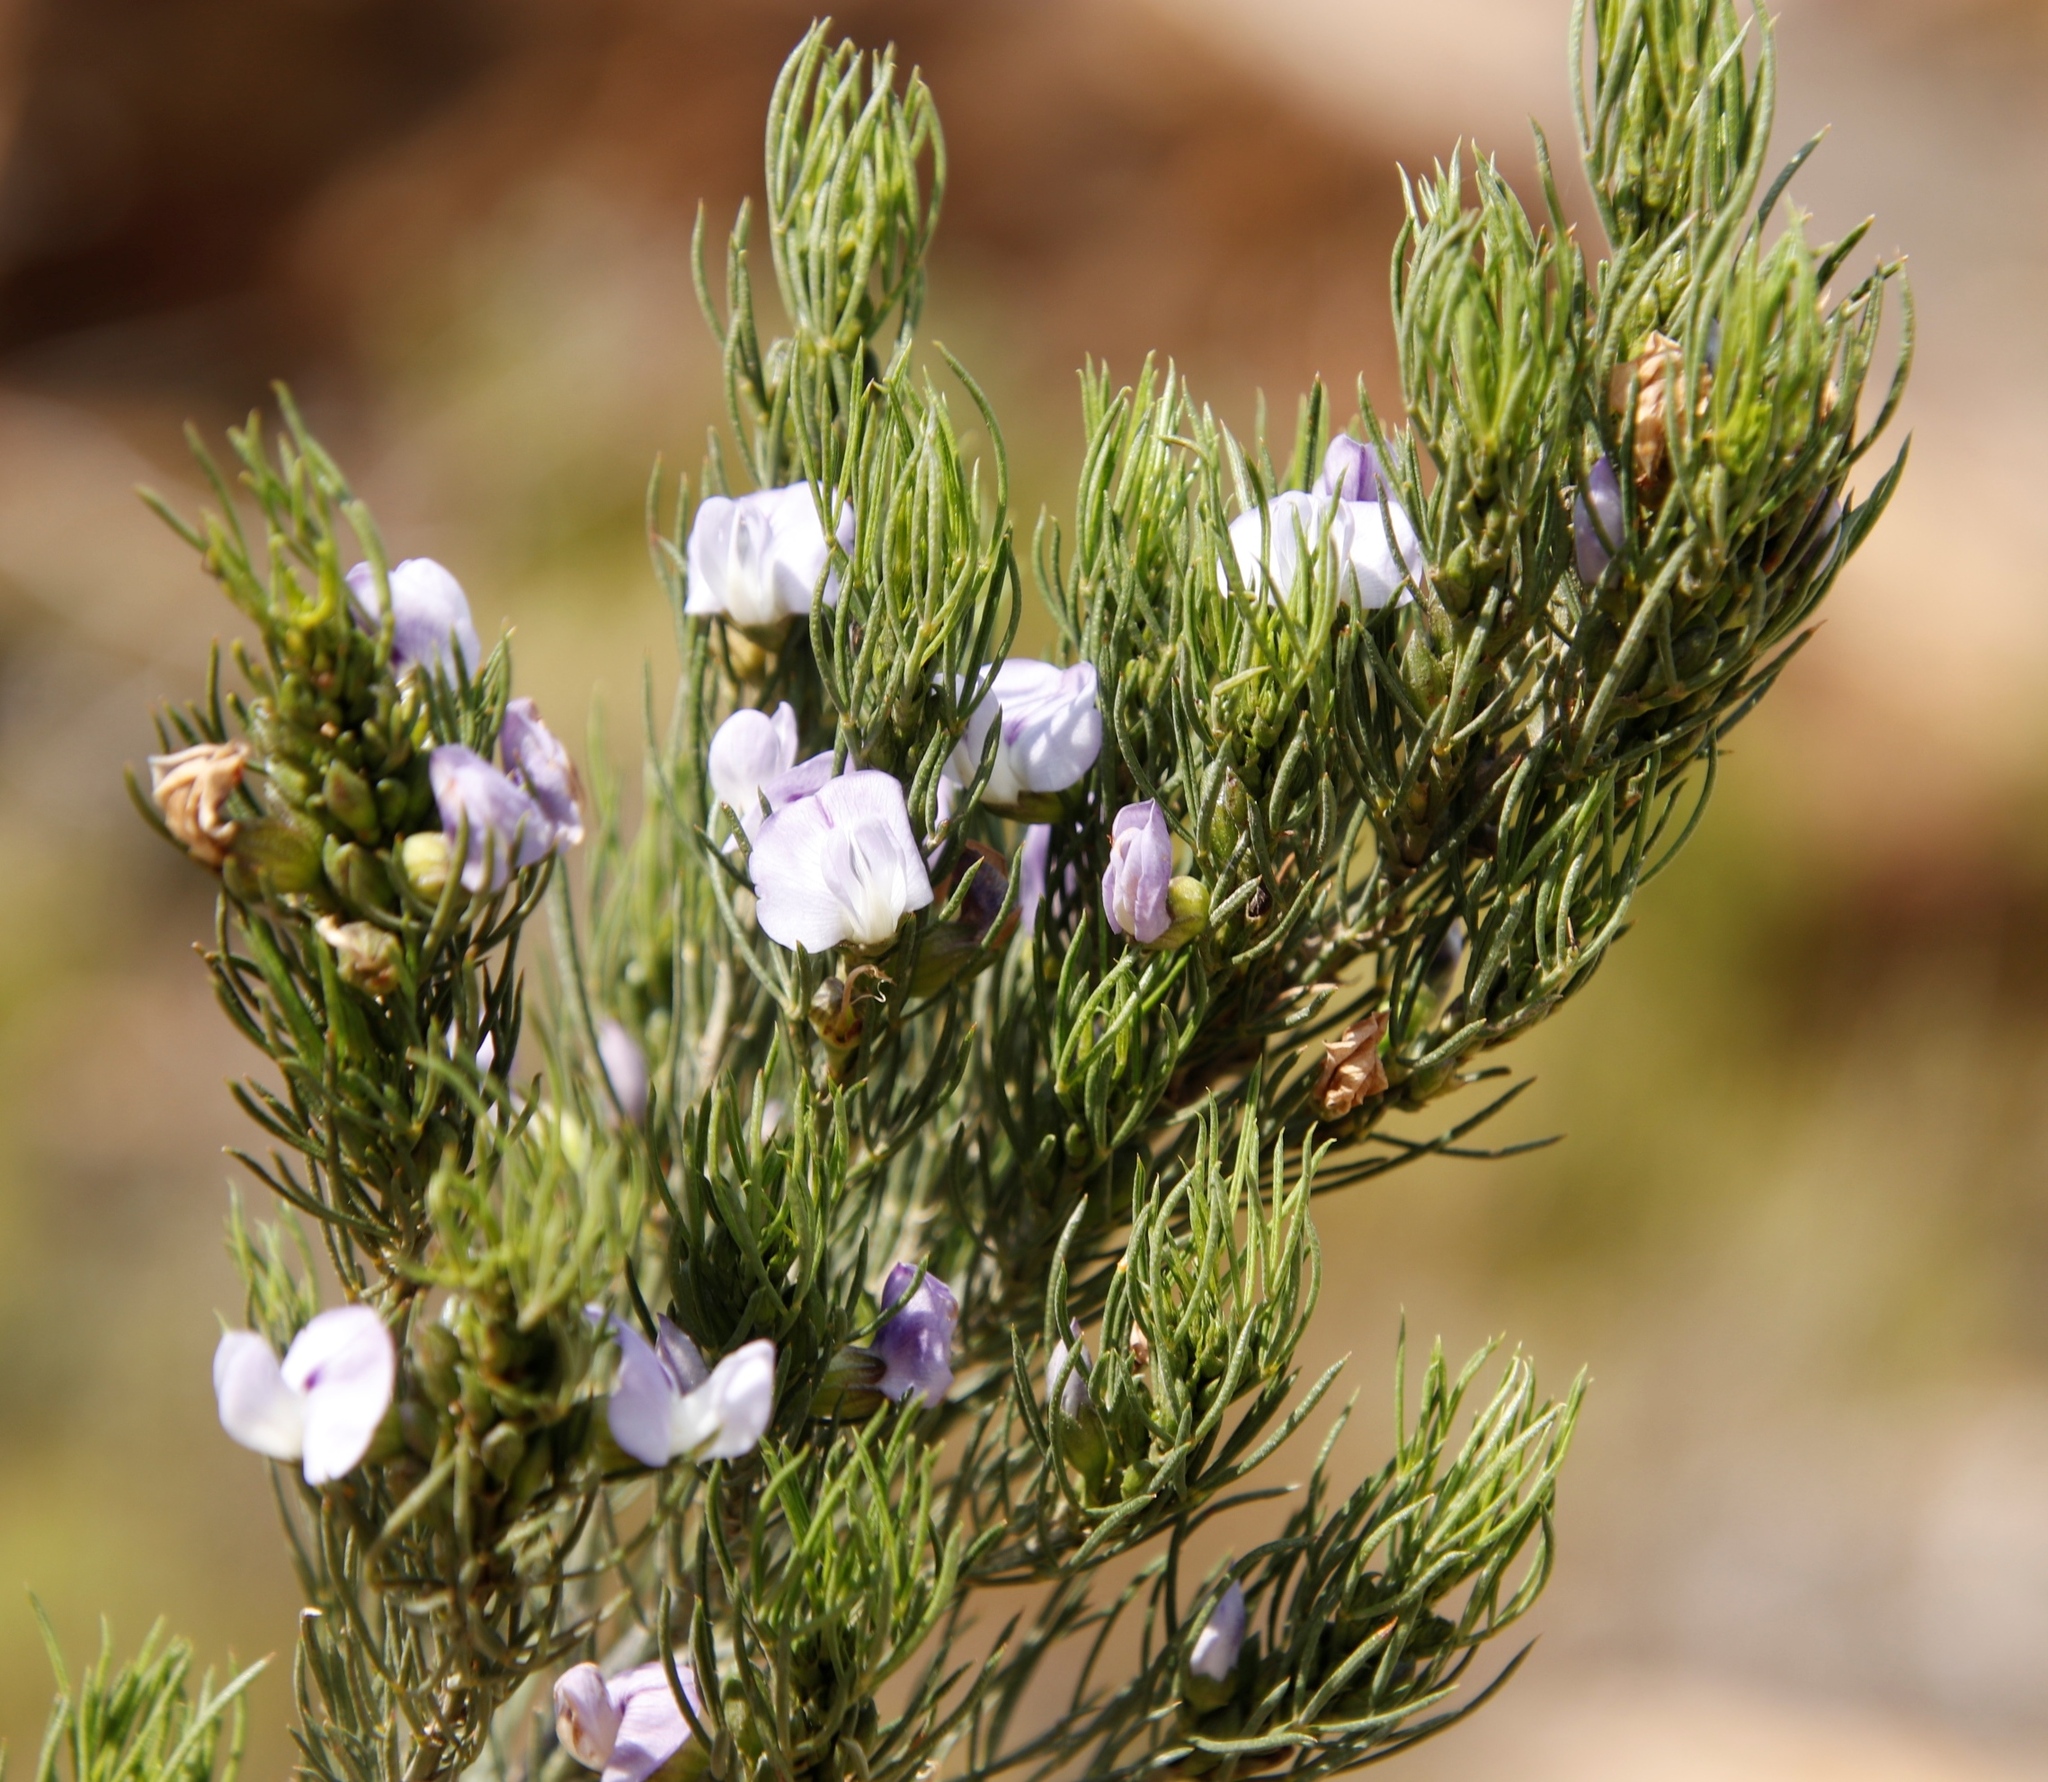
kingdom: Plantae
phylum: Tracheophyta
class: Magnoliopsida
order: Fabales
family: Fabaceae
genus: Psoralea
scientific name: Psoralea sordida
